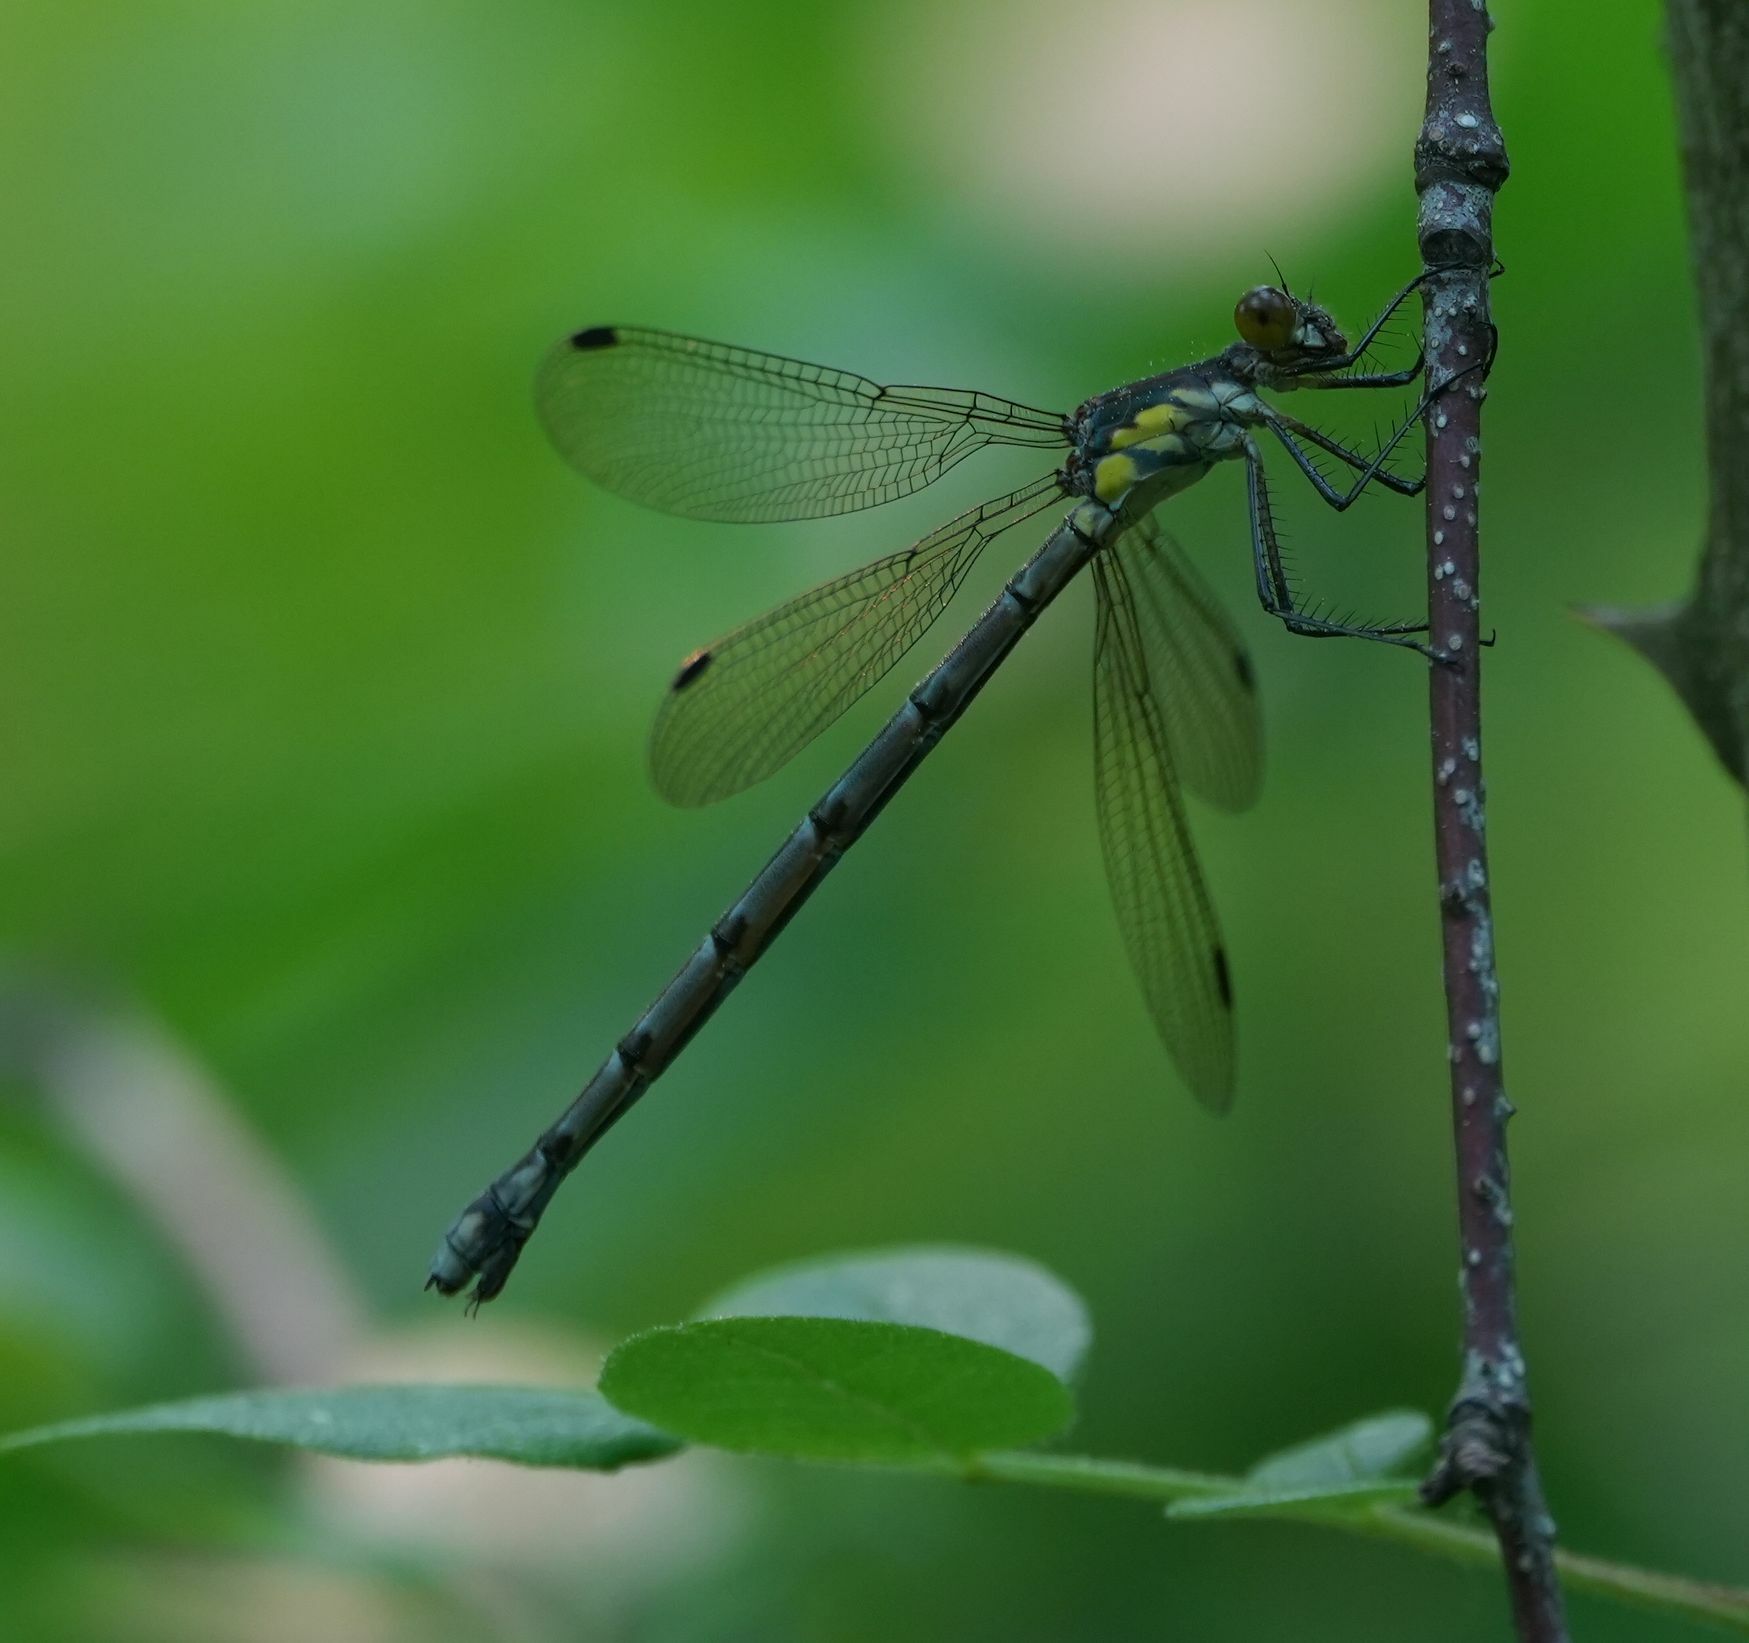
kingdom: Animalia
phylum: Arthropoda
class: Insecta
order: Odonata
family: Lestidae
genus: Lestes
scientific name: Lestes eurinus
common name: Amber-winged spreadwing
